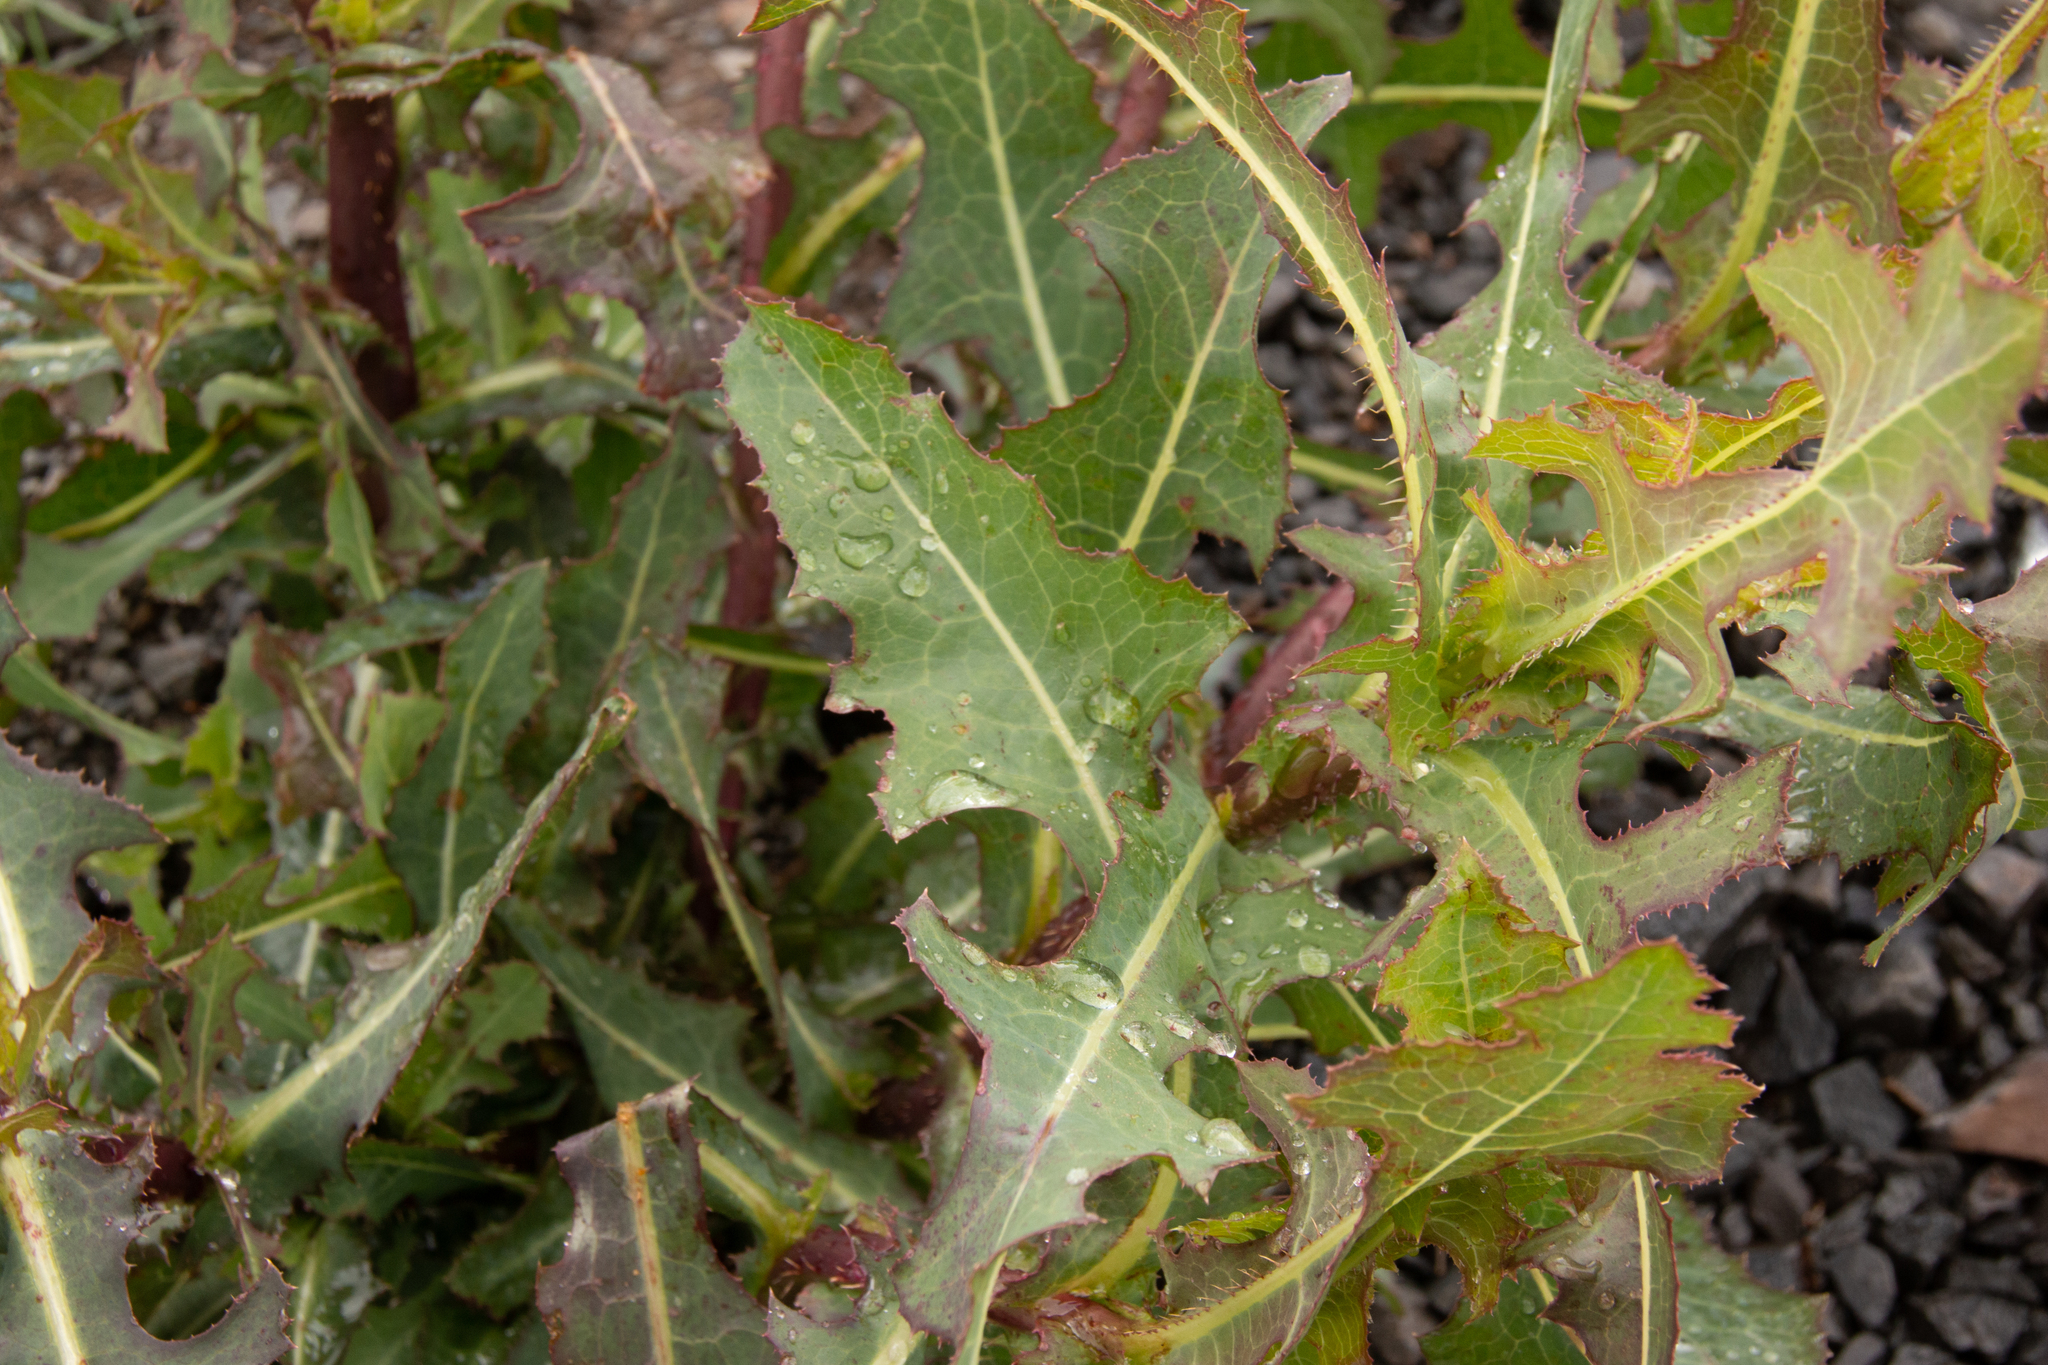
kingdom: Plantae
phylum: Tracheophyta
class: Magnoliopsida
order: Asterales
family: Asteraceae
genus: Lactuca
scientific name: Lactuca serriola
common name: Prickly lettuce
